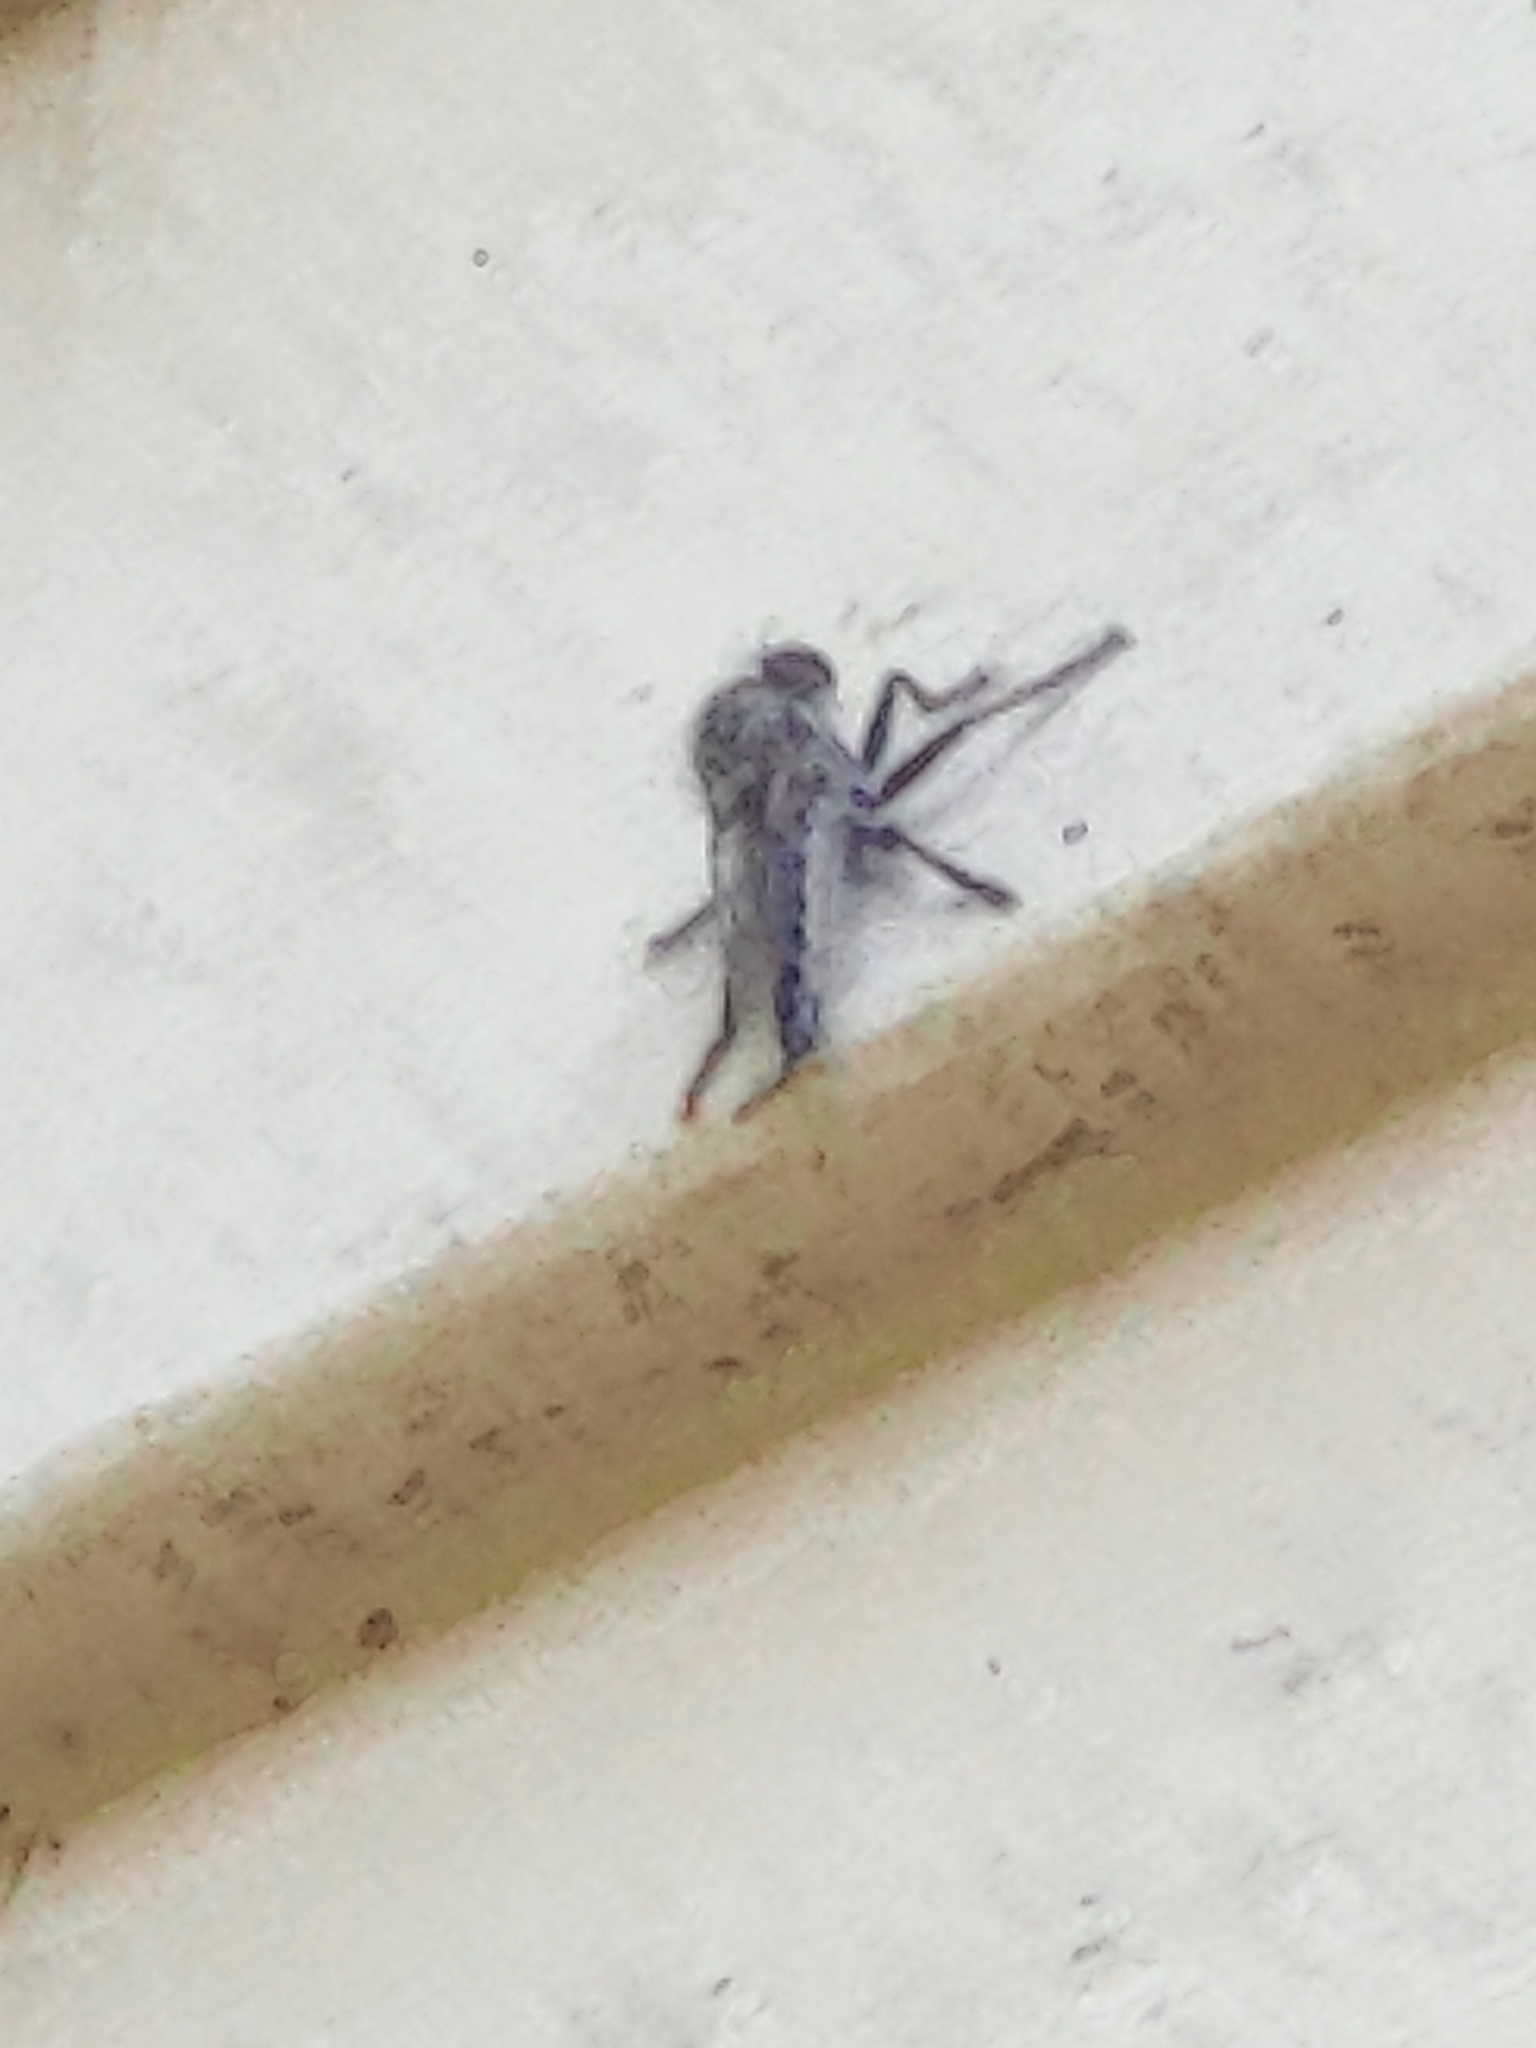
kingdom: Animalia
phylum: Arthropoda
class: Insecta
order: Diptera
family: Asilidae
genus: Efferia
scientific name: Efferia aestuans
